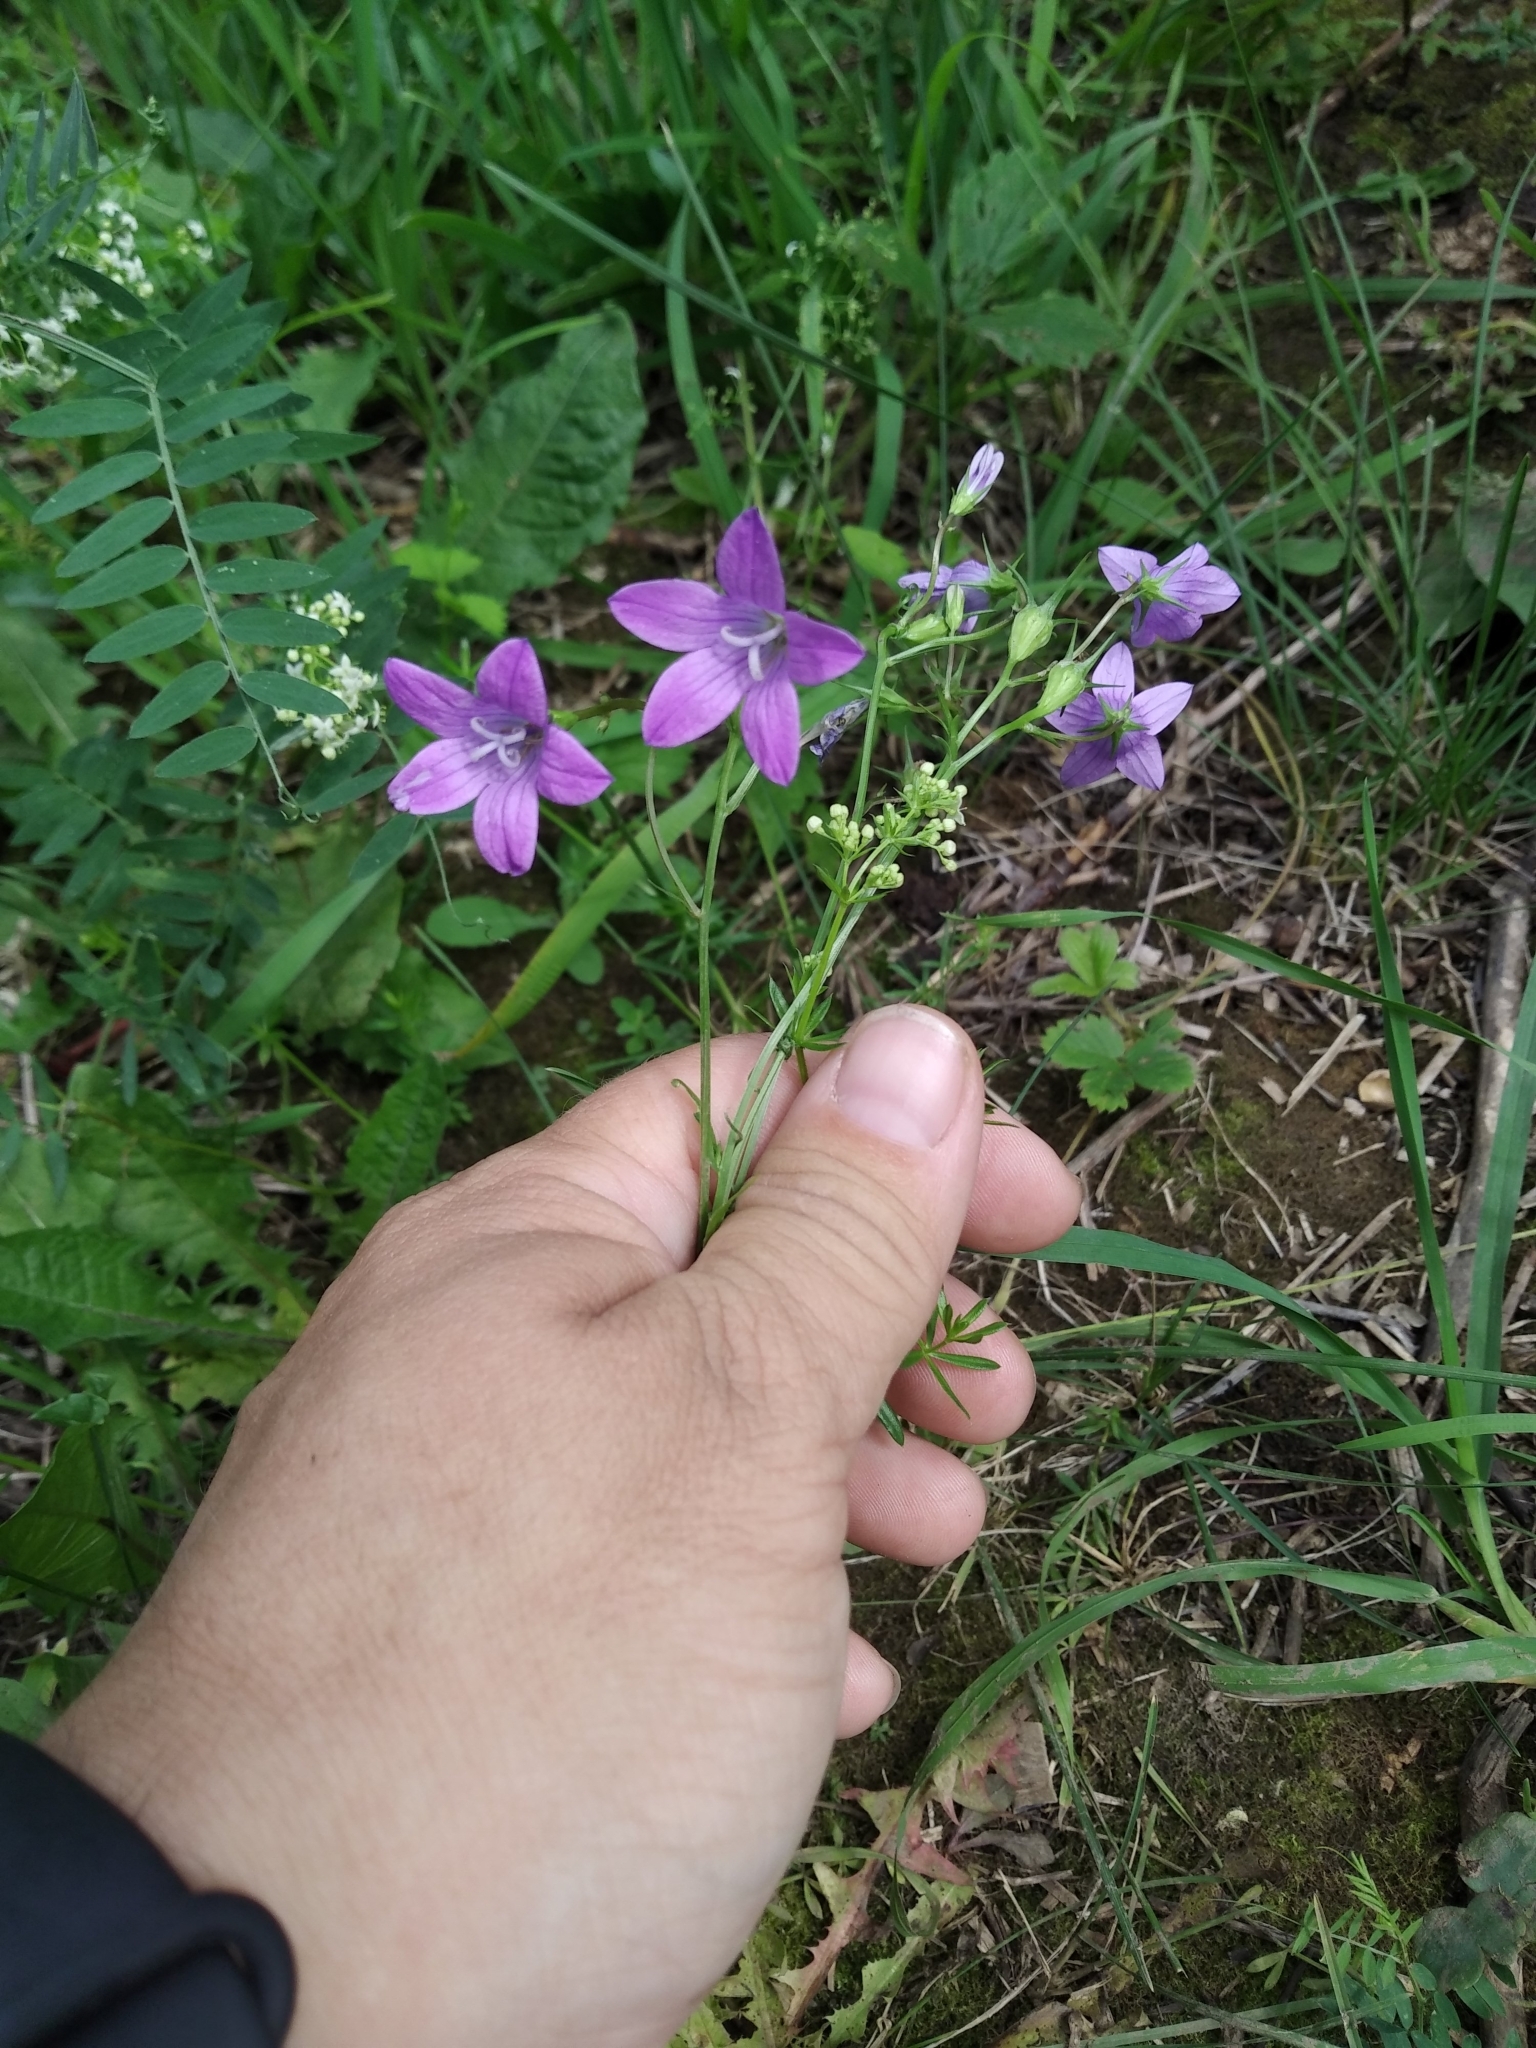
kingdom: Plantae
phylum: Tracheophyta
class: Magnoliopsida
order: Asterales
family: Campanulaceae
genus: Campanula
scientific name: Campanula patula
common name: Spreading bellflower
